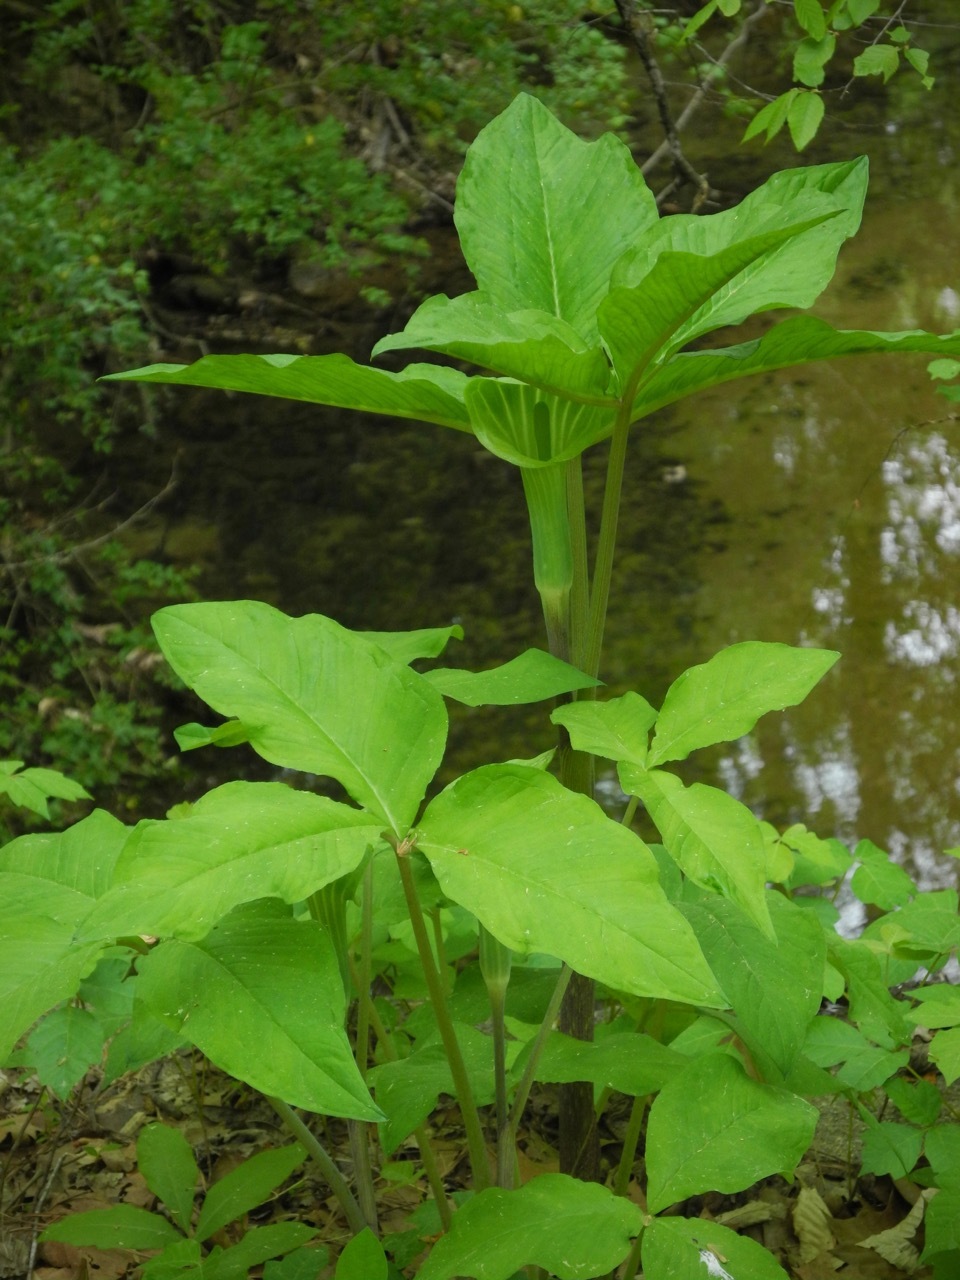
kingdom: Plantae
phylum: Tracheophyta
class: Liliopsida
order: Alismatales
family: Araceae
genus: Arisaema
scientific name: Arisaema triphyllum
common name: Jack-in-the-pulpit
